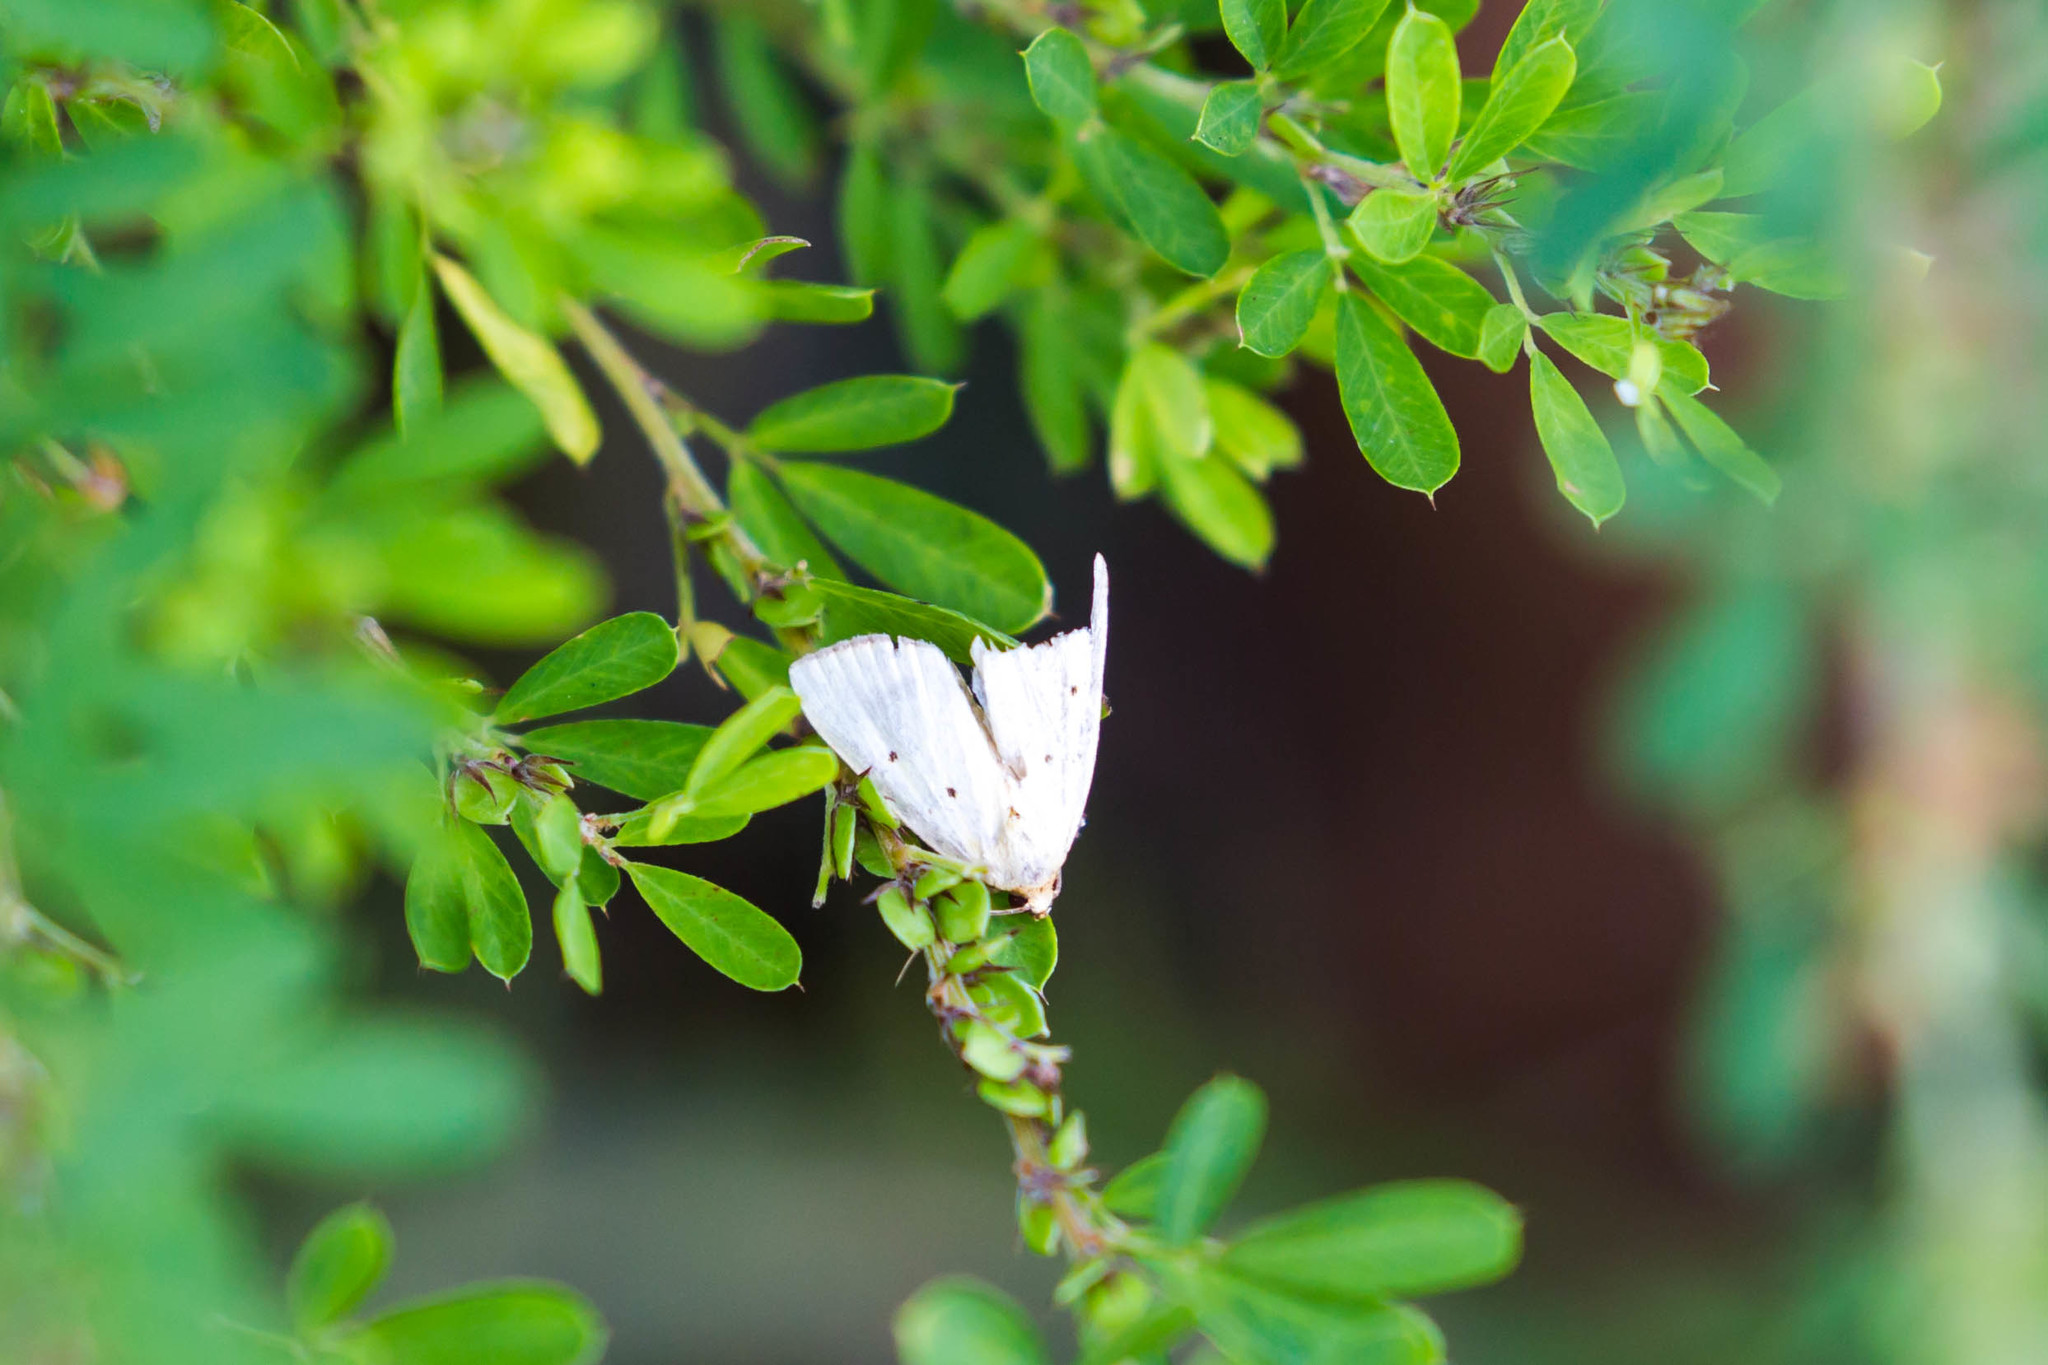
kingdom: Animalia
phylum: Arthropoda
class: Insecta
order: Lepidoptera
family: Noctuidae
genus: Marimatha
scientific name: Marimatha nigrofimbria
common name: Black-bordered lemon moth
